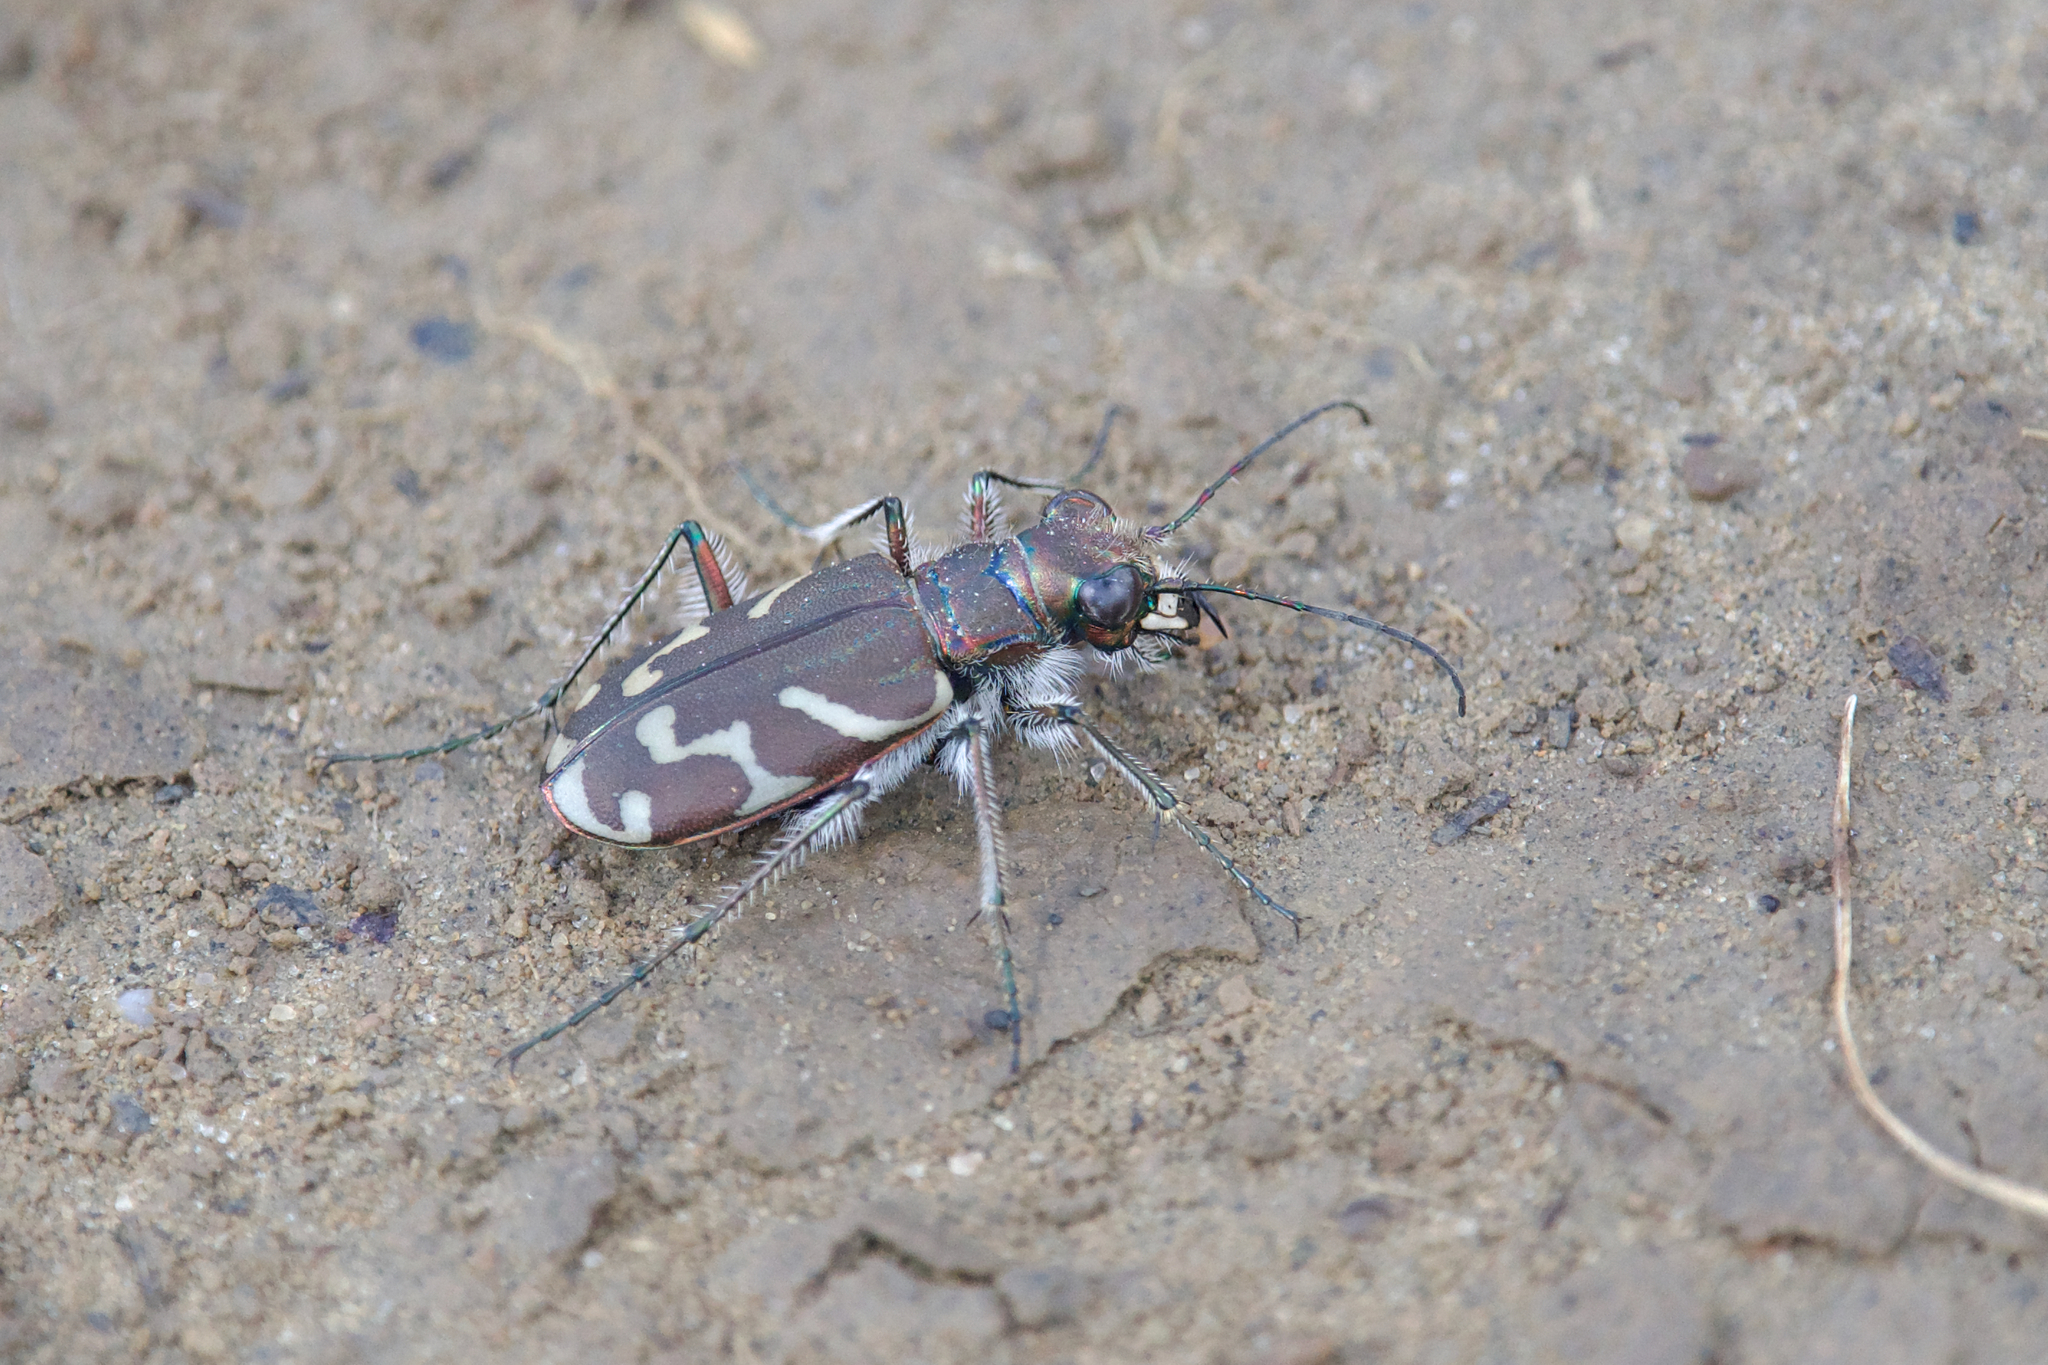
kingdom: Animalia
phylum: Arthropoda
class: Insecta
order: Coleoptera
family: Carabidae
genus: Cicindela
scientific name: Cicindela tranquebarica
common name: Oblique-lined tiger beetle
